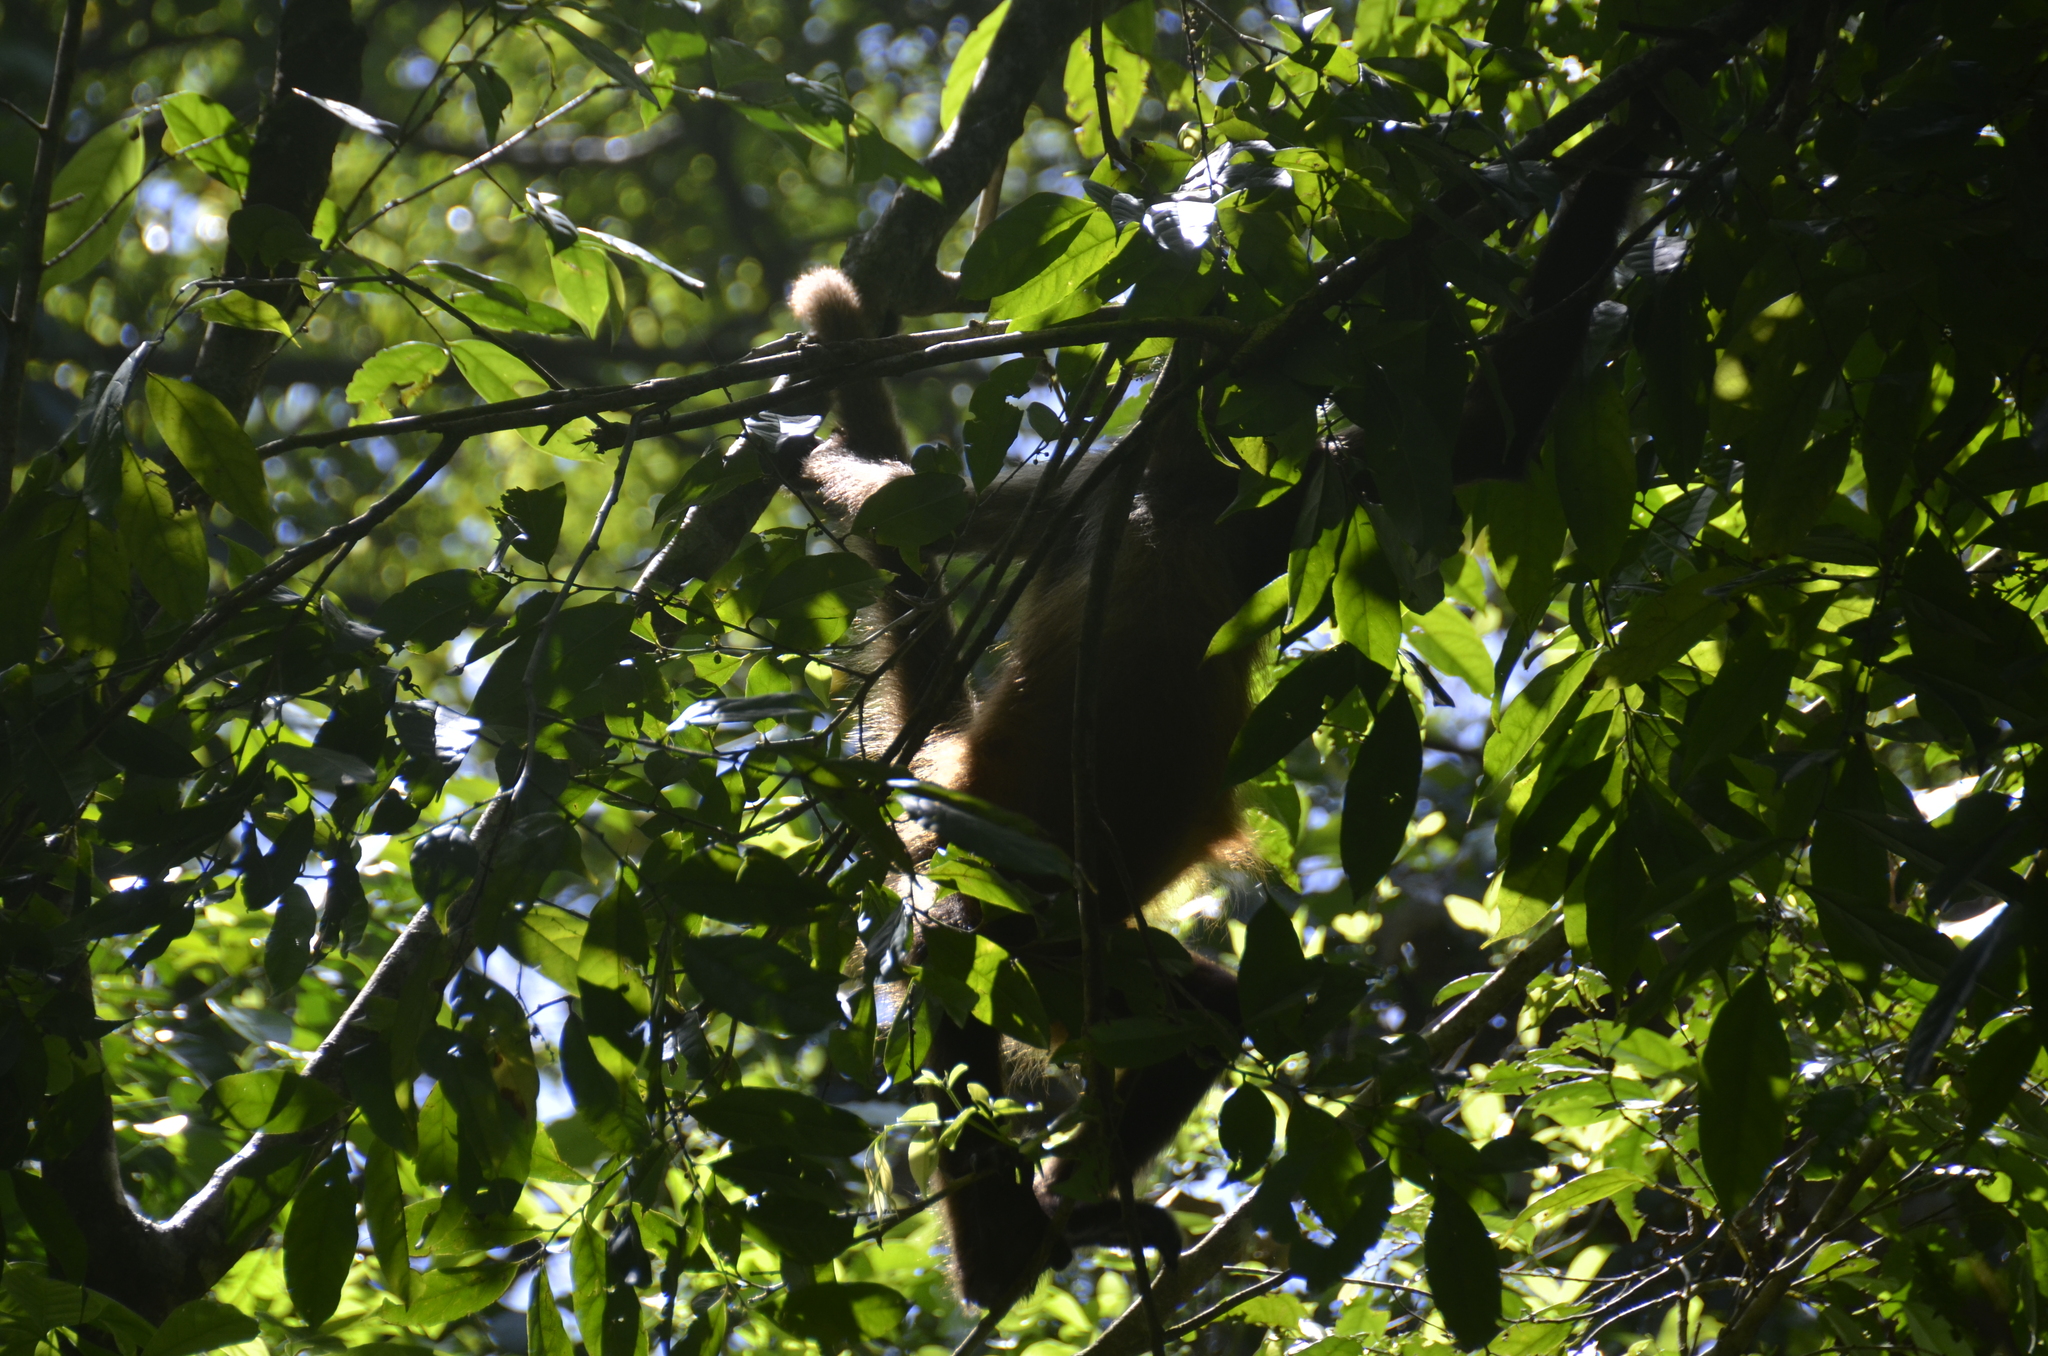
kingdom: Animalia
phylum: Chordata
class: Mammalia
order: Primates
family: Atelidae
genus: Ateles
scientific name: Ateles geoffroyi
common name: Black-handed spider monkey
